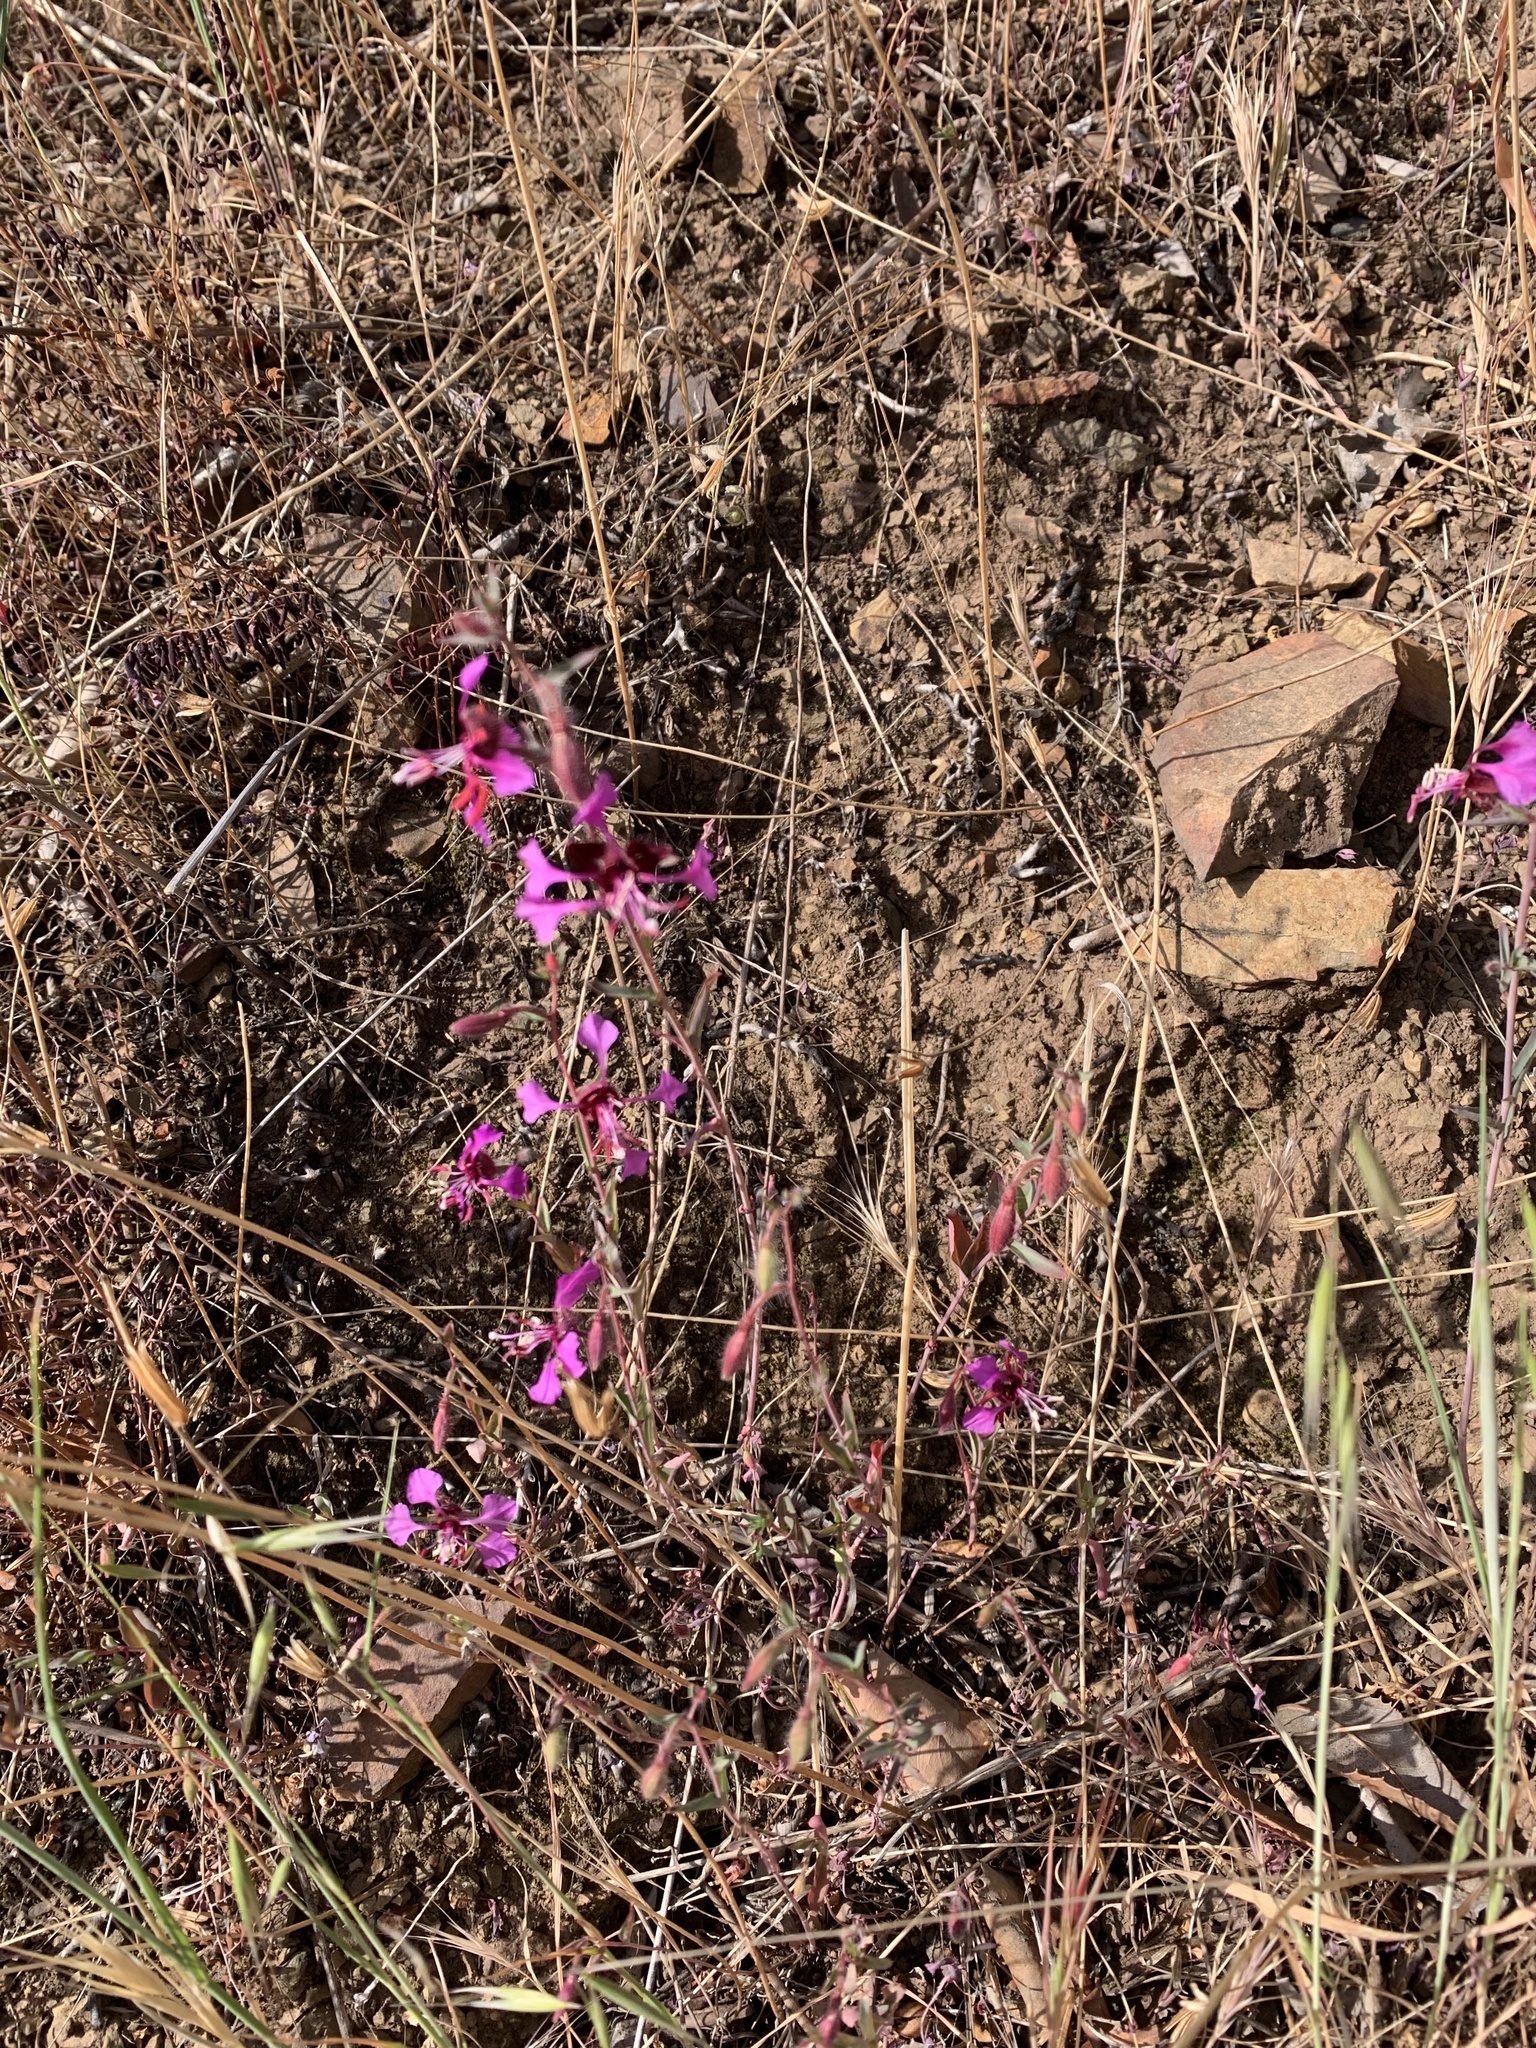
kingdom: Plantae
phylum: Tracheophyta
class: Magnoliopsida
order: Myrtales
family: Onagraceae
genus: Clarkia
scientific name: Clarkia unguiculata
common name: Clarkia
